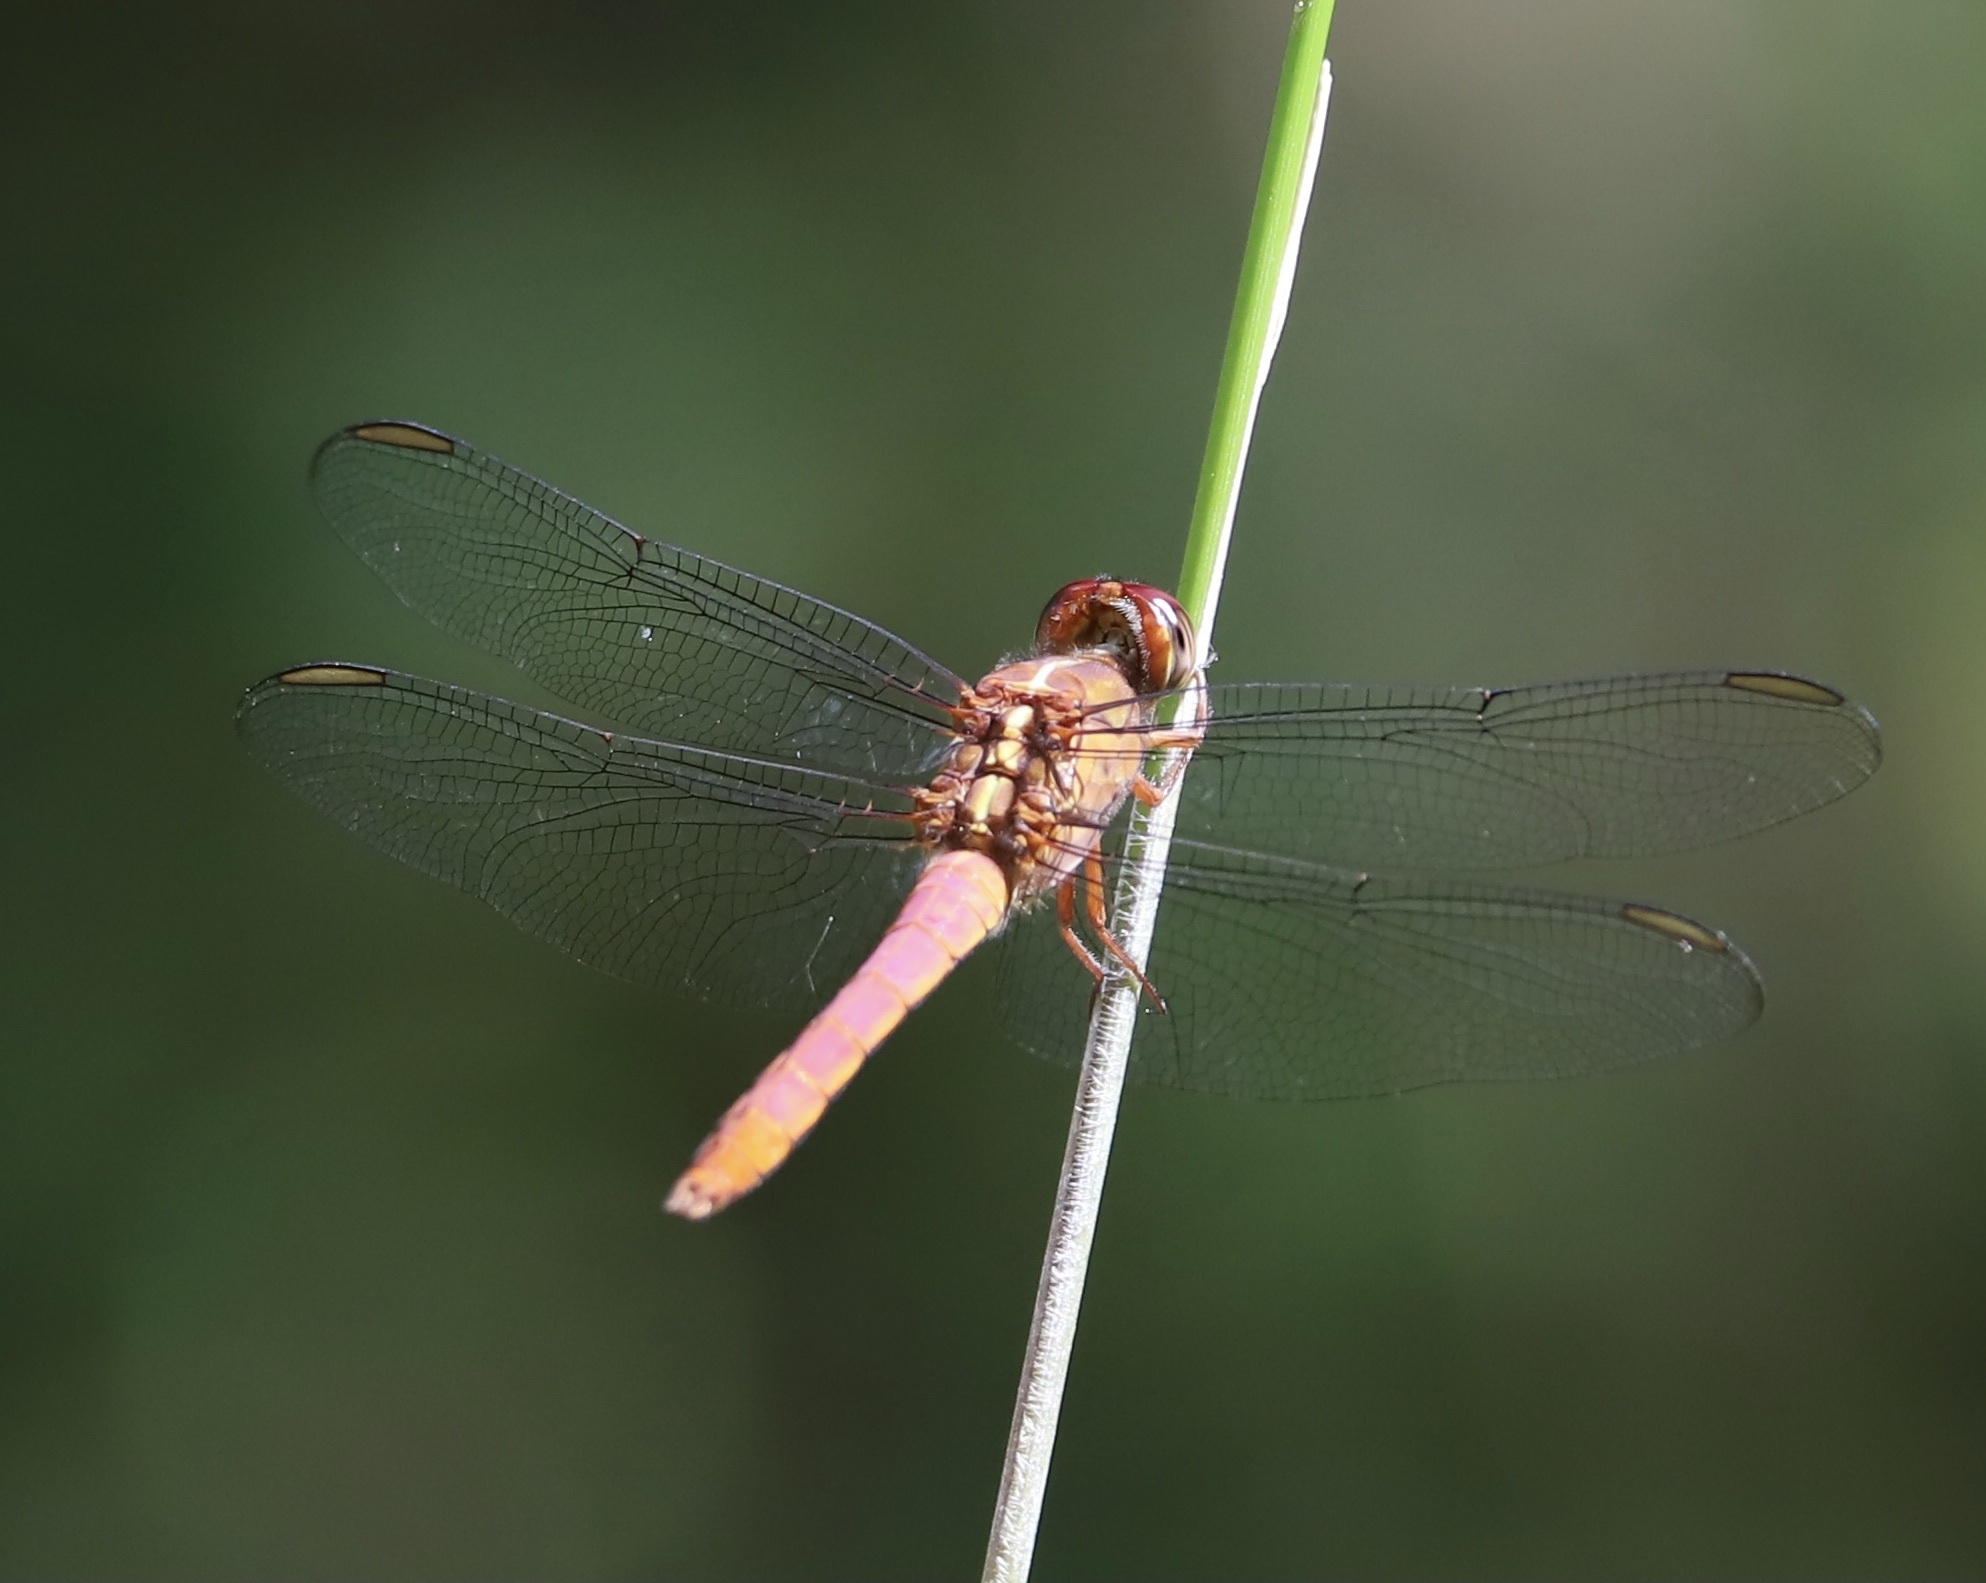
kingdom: Animalia
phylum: Arthropoda
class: Insecta
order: Odonata
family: Libellulidae
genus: Orthemis
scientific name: Orthemis discolor
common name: Carmine skimmer
